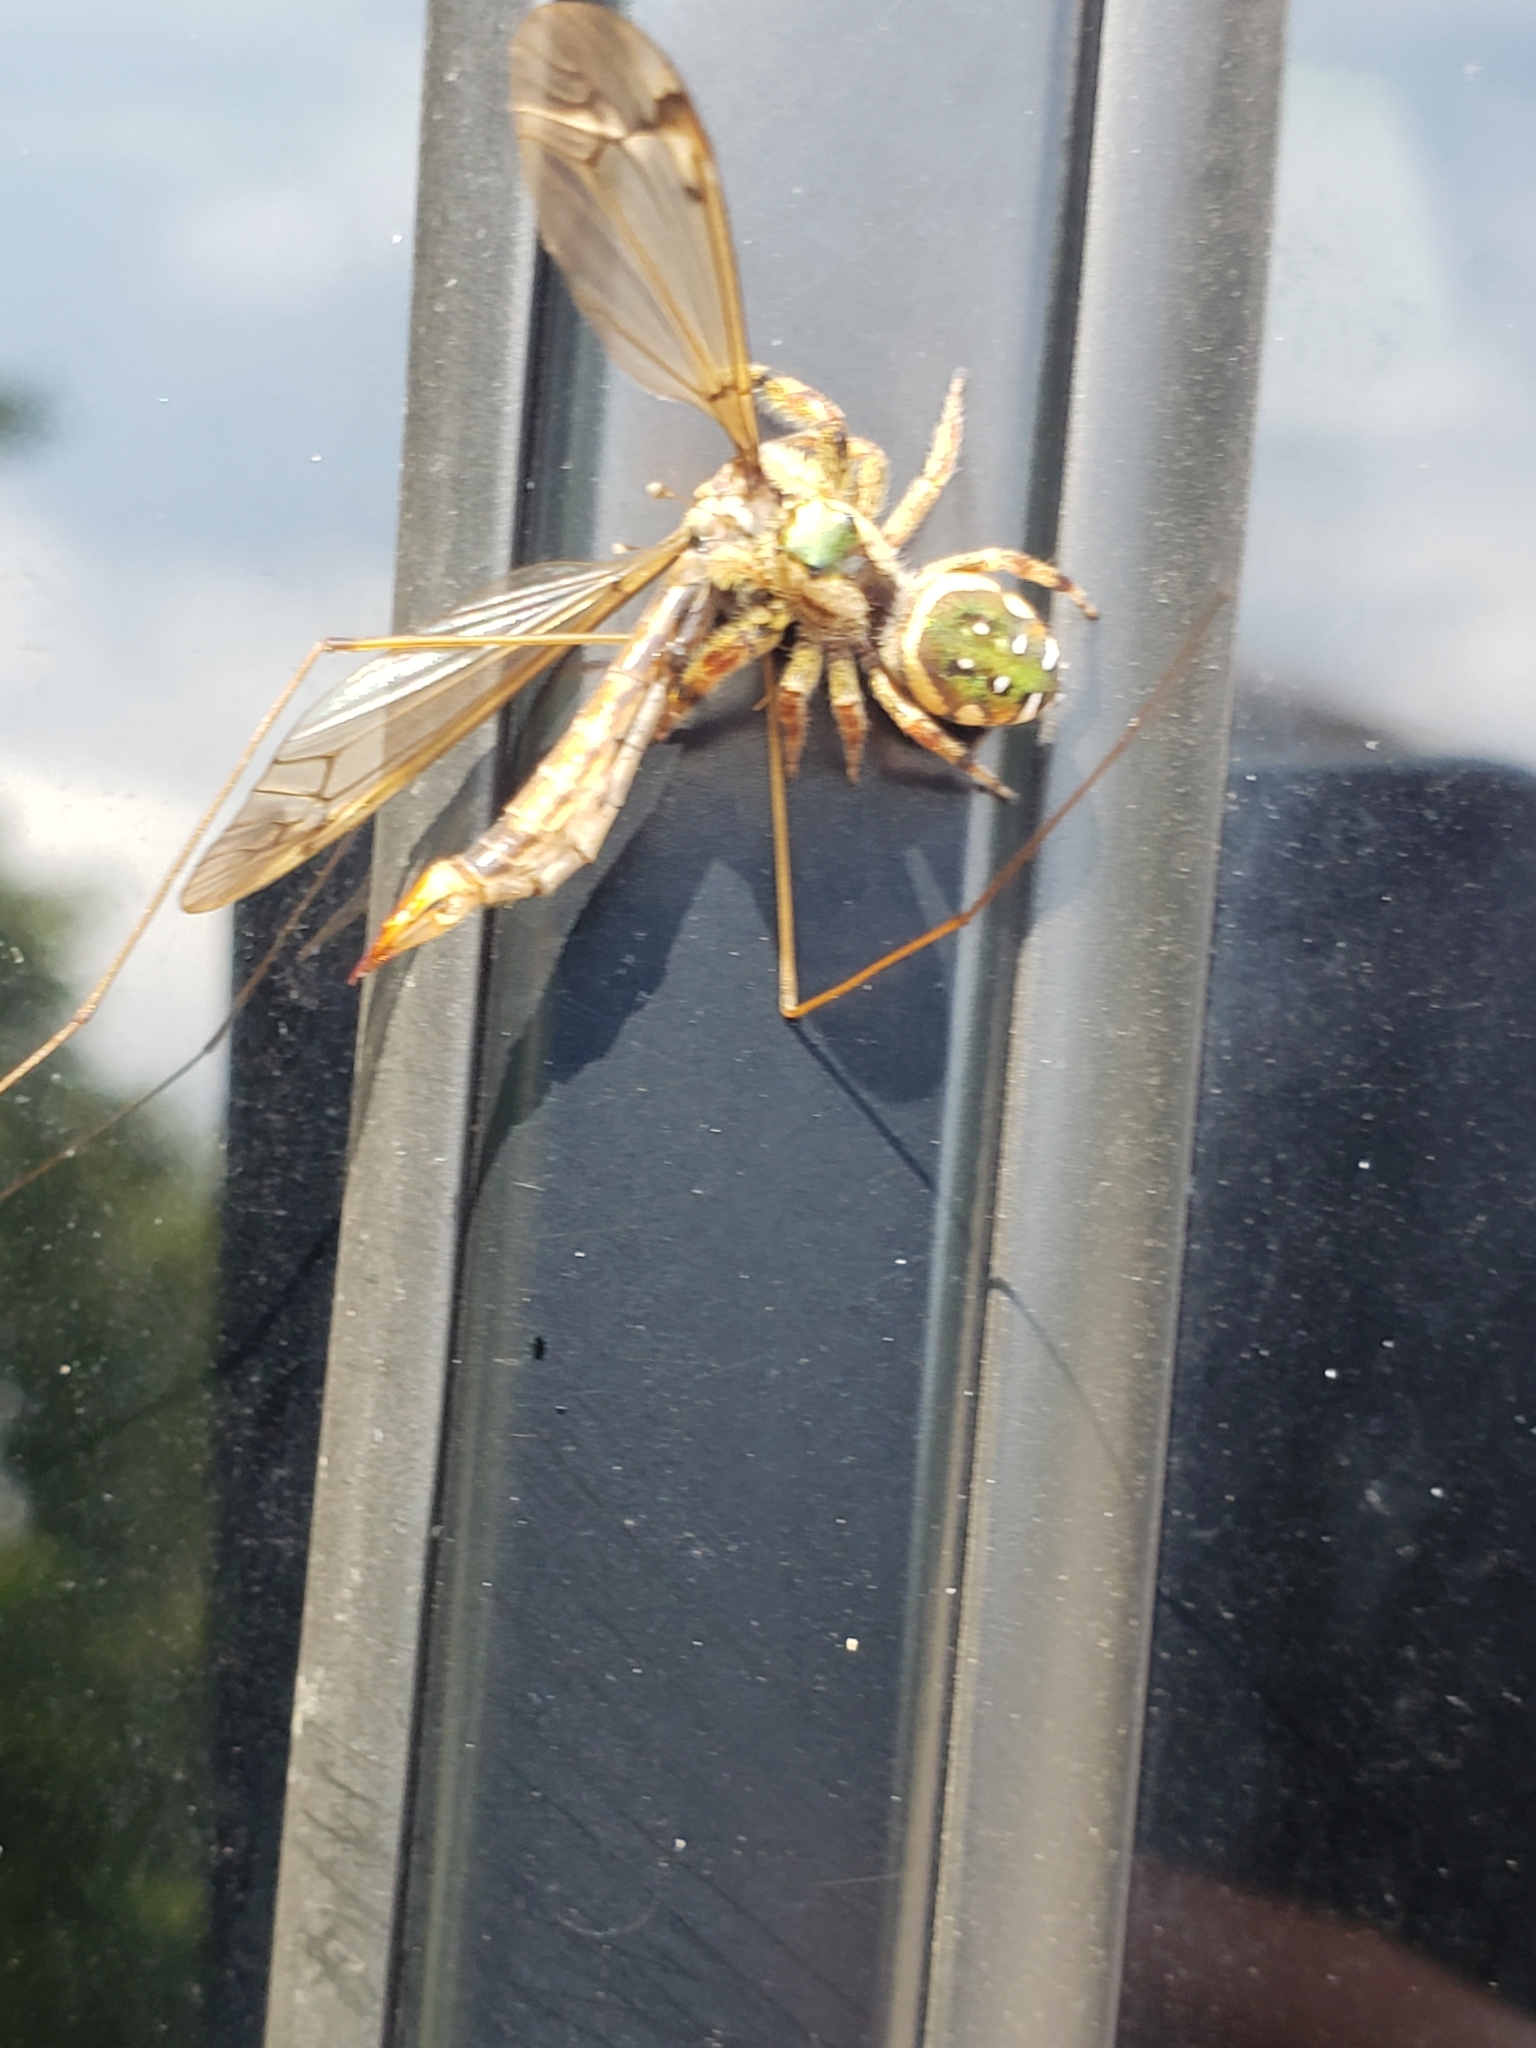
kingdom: Animalia
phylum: Arthropoda
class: Arachnida
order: Araneae
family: Salticidae
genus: Paraphidippus
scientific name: Paraphidippus aurantius
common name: Jumping spiders
